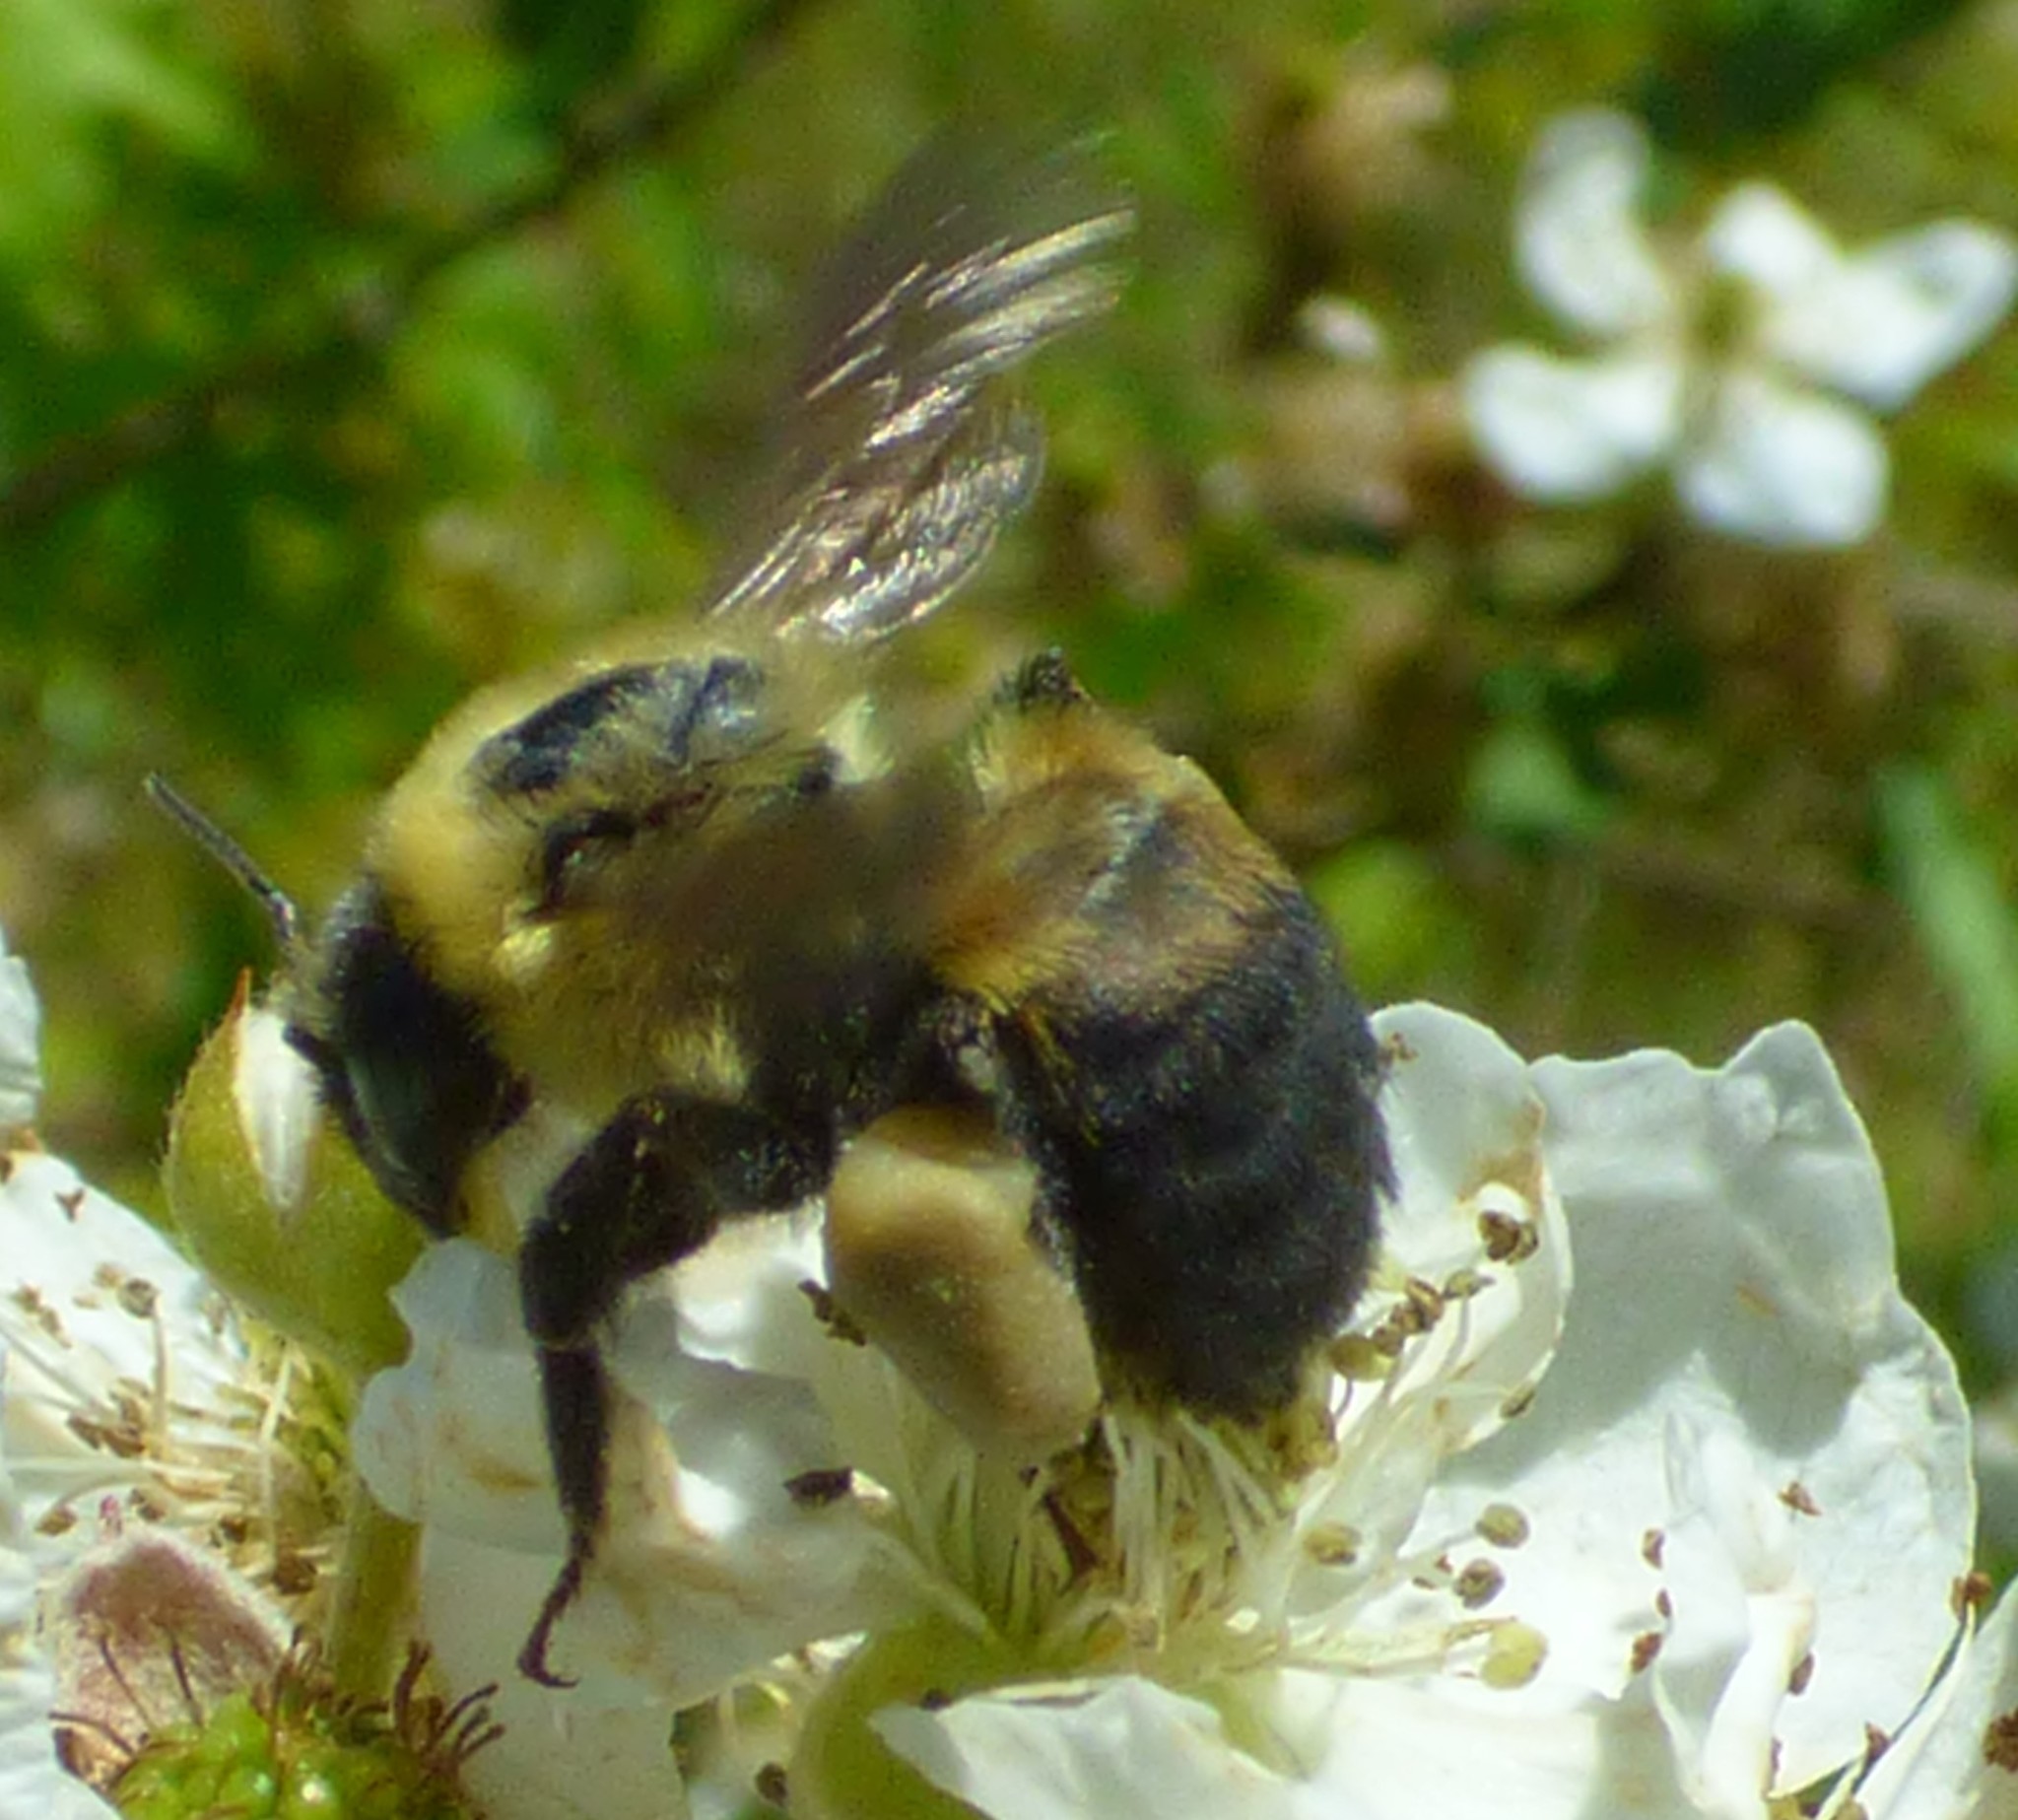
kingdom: Animalia
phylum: Arthropoda
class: Insecta
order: Hymenoptera
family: Apidae
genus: Bombus
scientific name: Bombus griseocollis
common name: Brown-belted bumble bee
